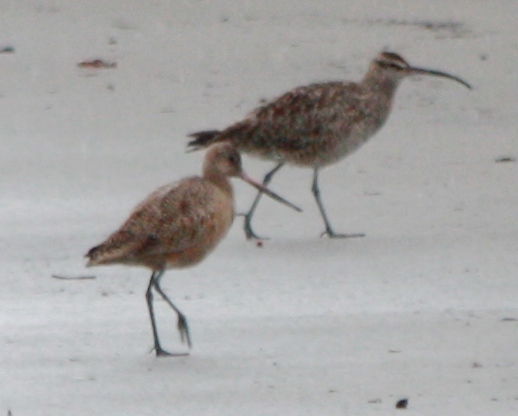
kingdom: Animalia
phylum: Chordata
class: Aves
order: Charadriiformes
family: Scolopacidae
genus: Limosa
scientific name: Limosa fedoa
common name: Marbled godwit
